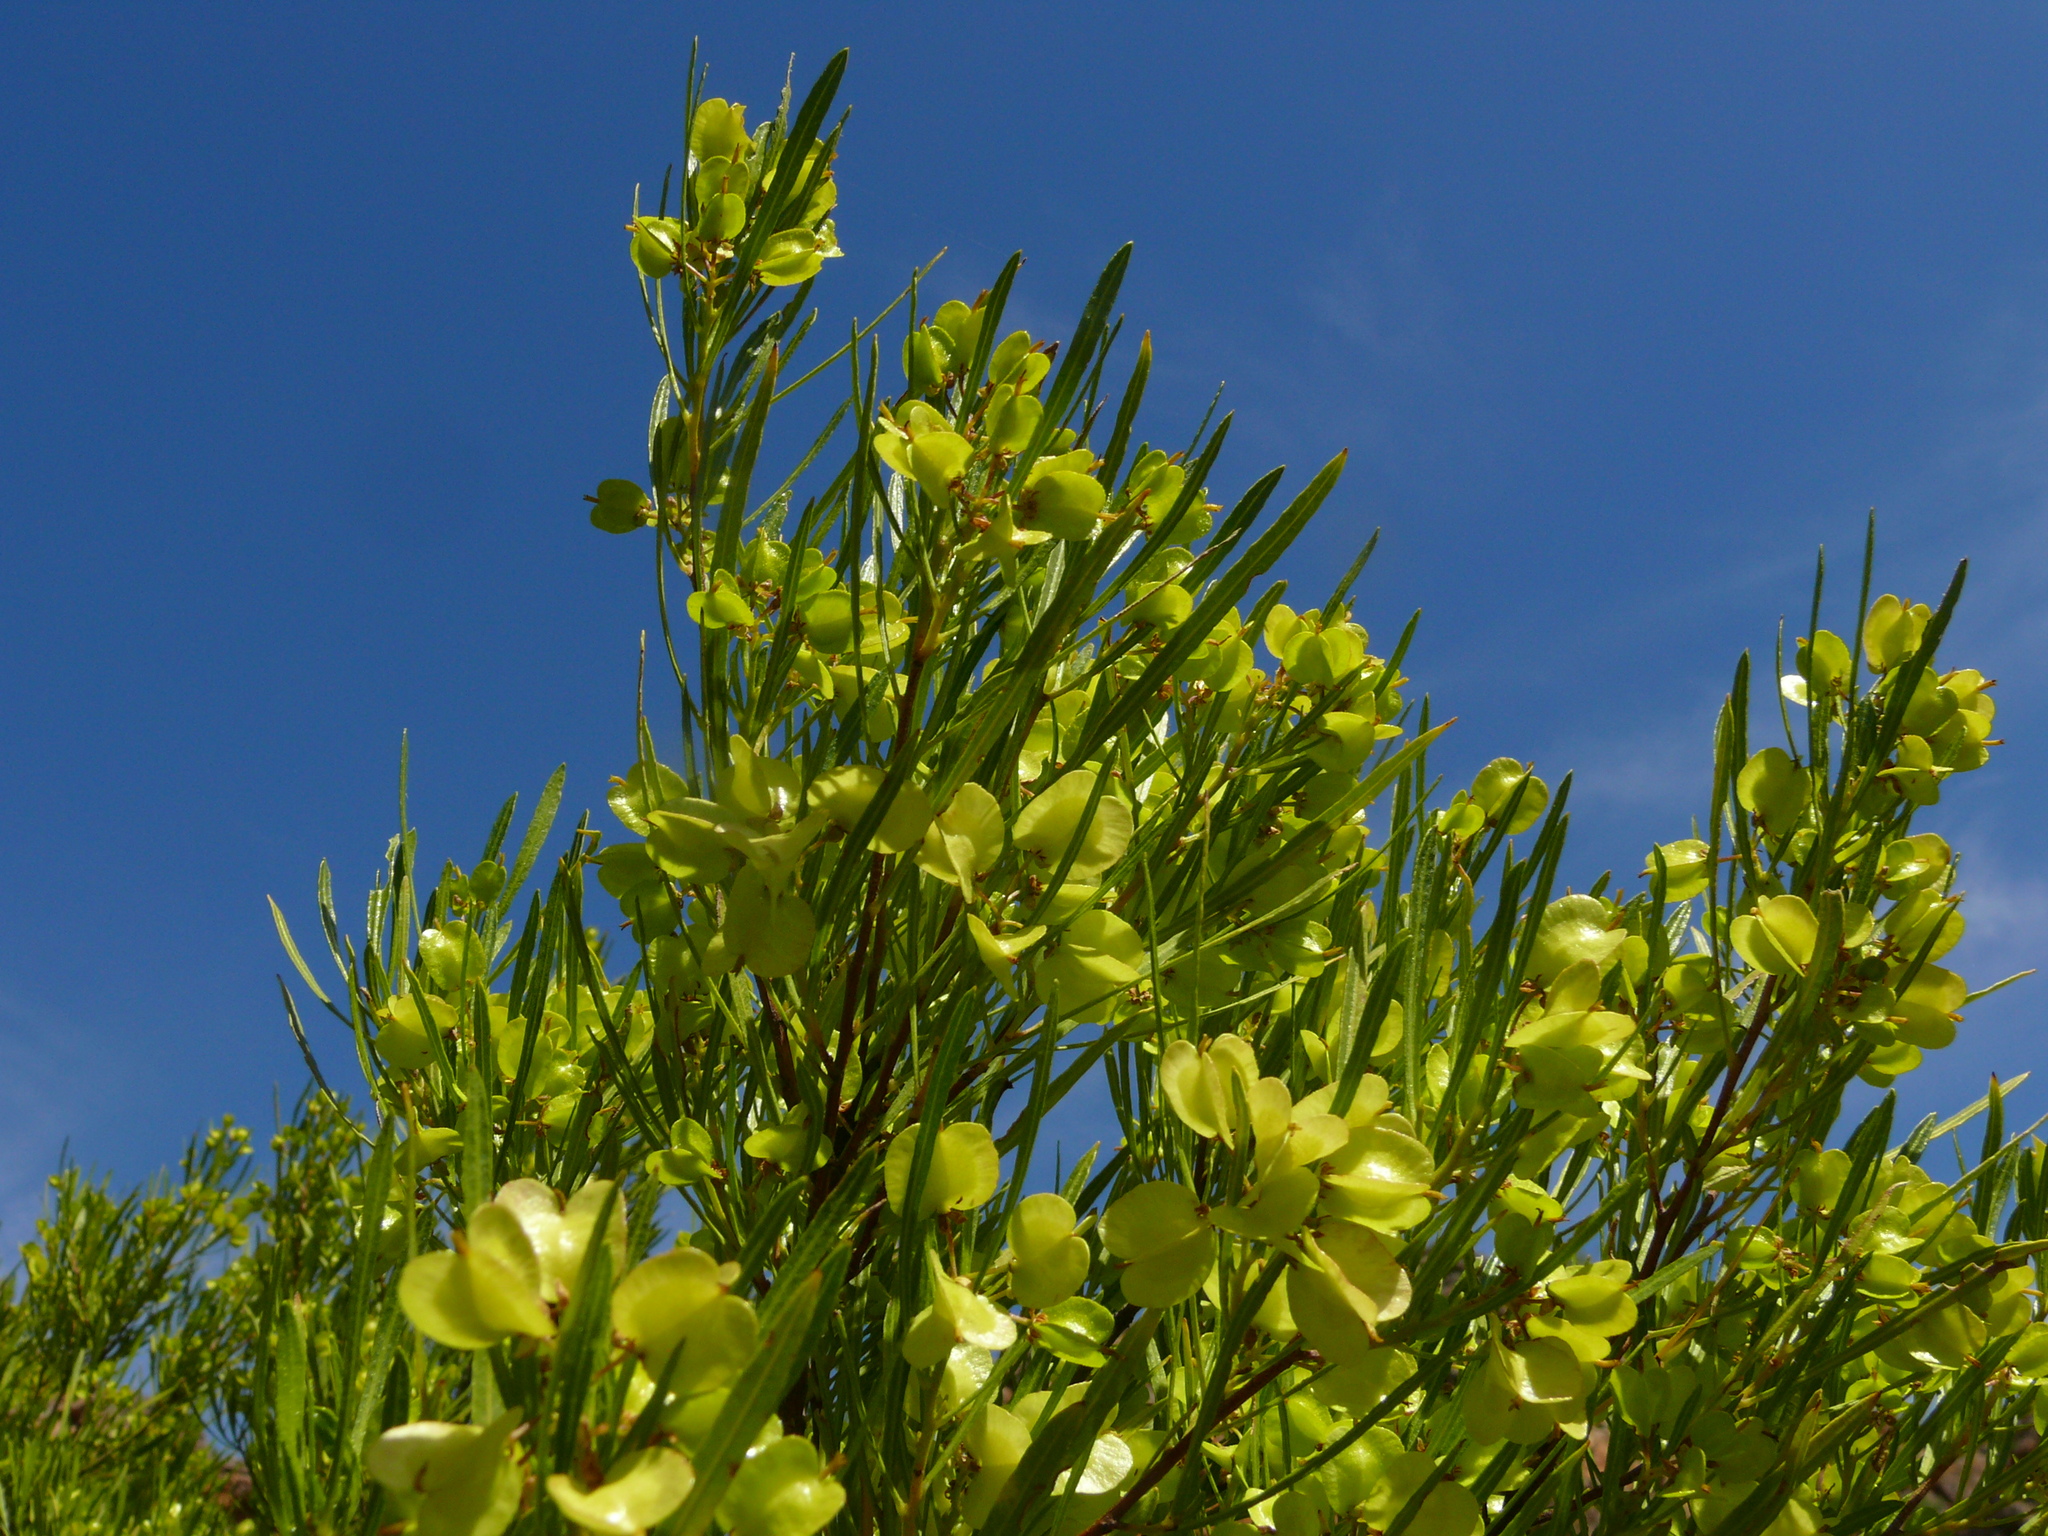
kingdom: Plantae
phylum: Tracheophyta
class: Magnoliopsida
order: Sapindales
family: Sapindaceae
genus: Dodonaea
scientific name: Dodonaea viscosa
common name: Hopbush
